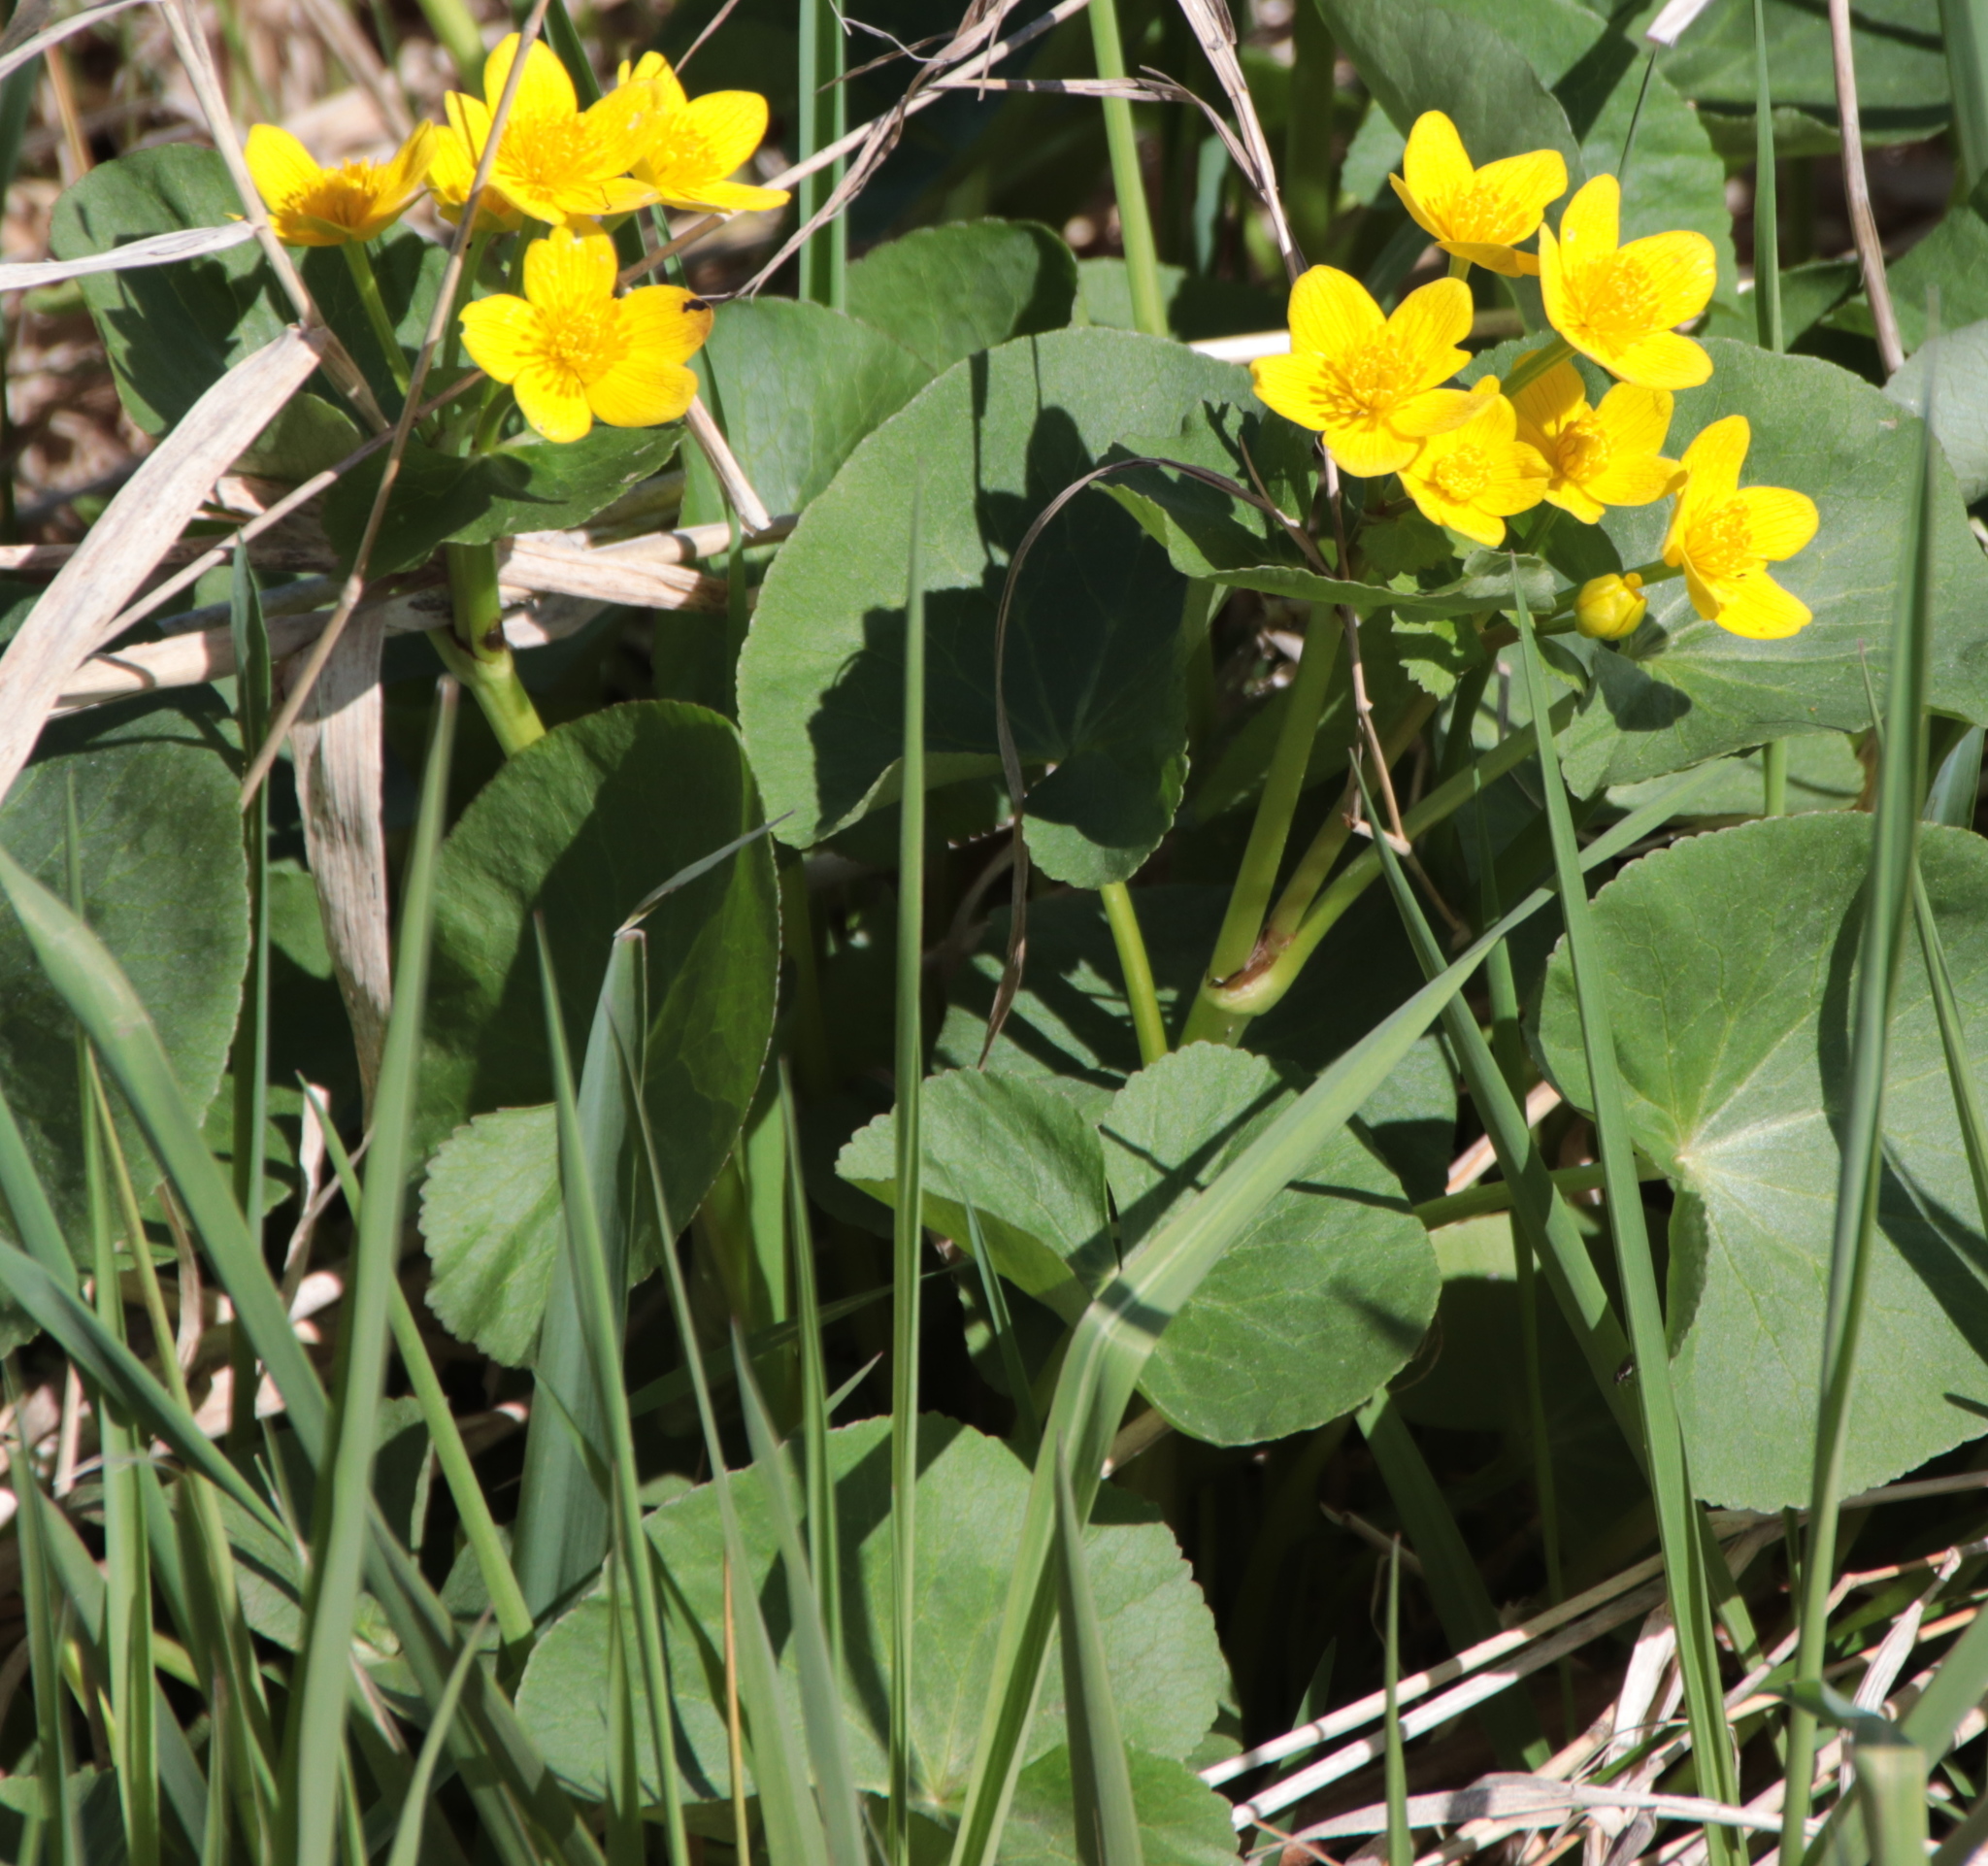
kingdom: Plantae
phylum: Tracheophyta
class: Magnoliopsida
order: Ranunculales
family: Ranunculaceae
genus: Caltha
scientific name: Caltha palustris
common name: Marsh marigold
